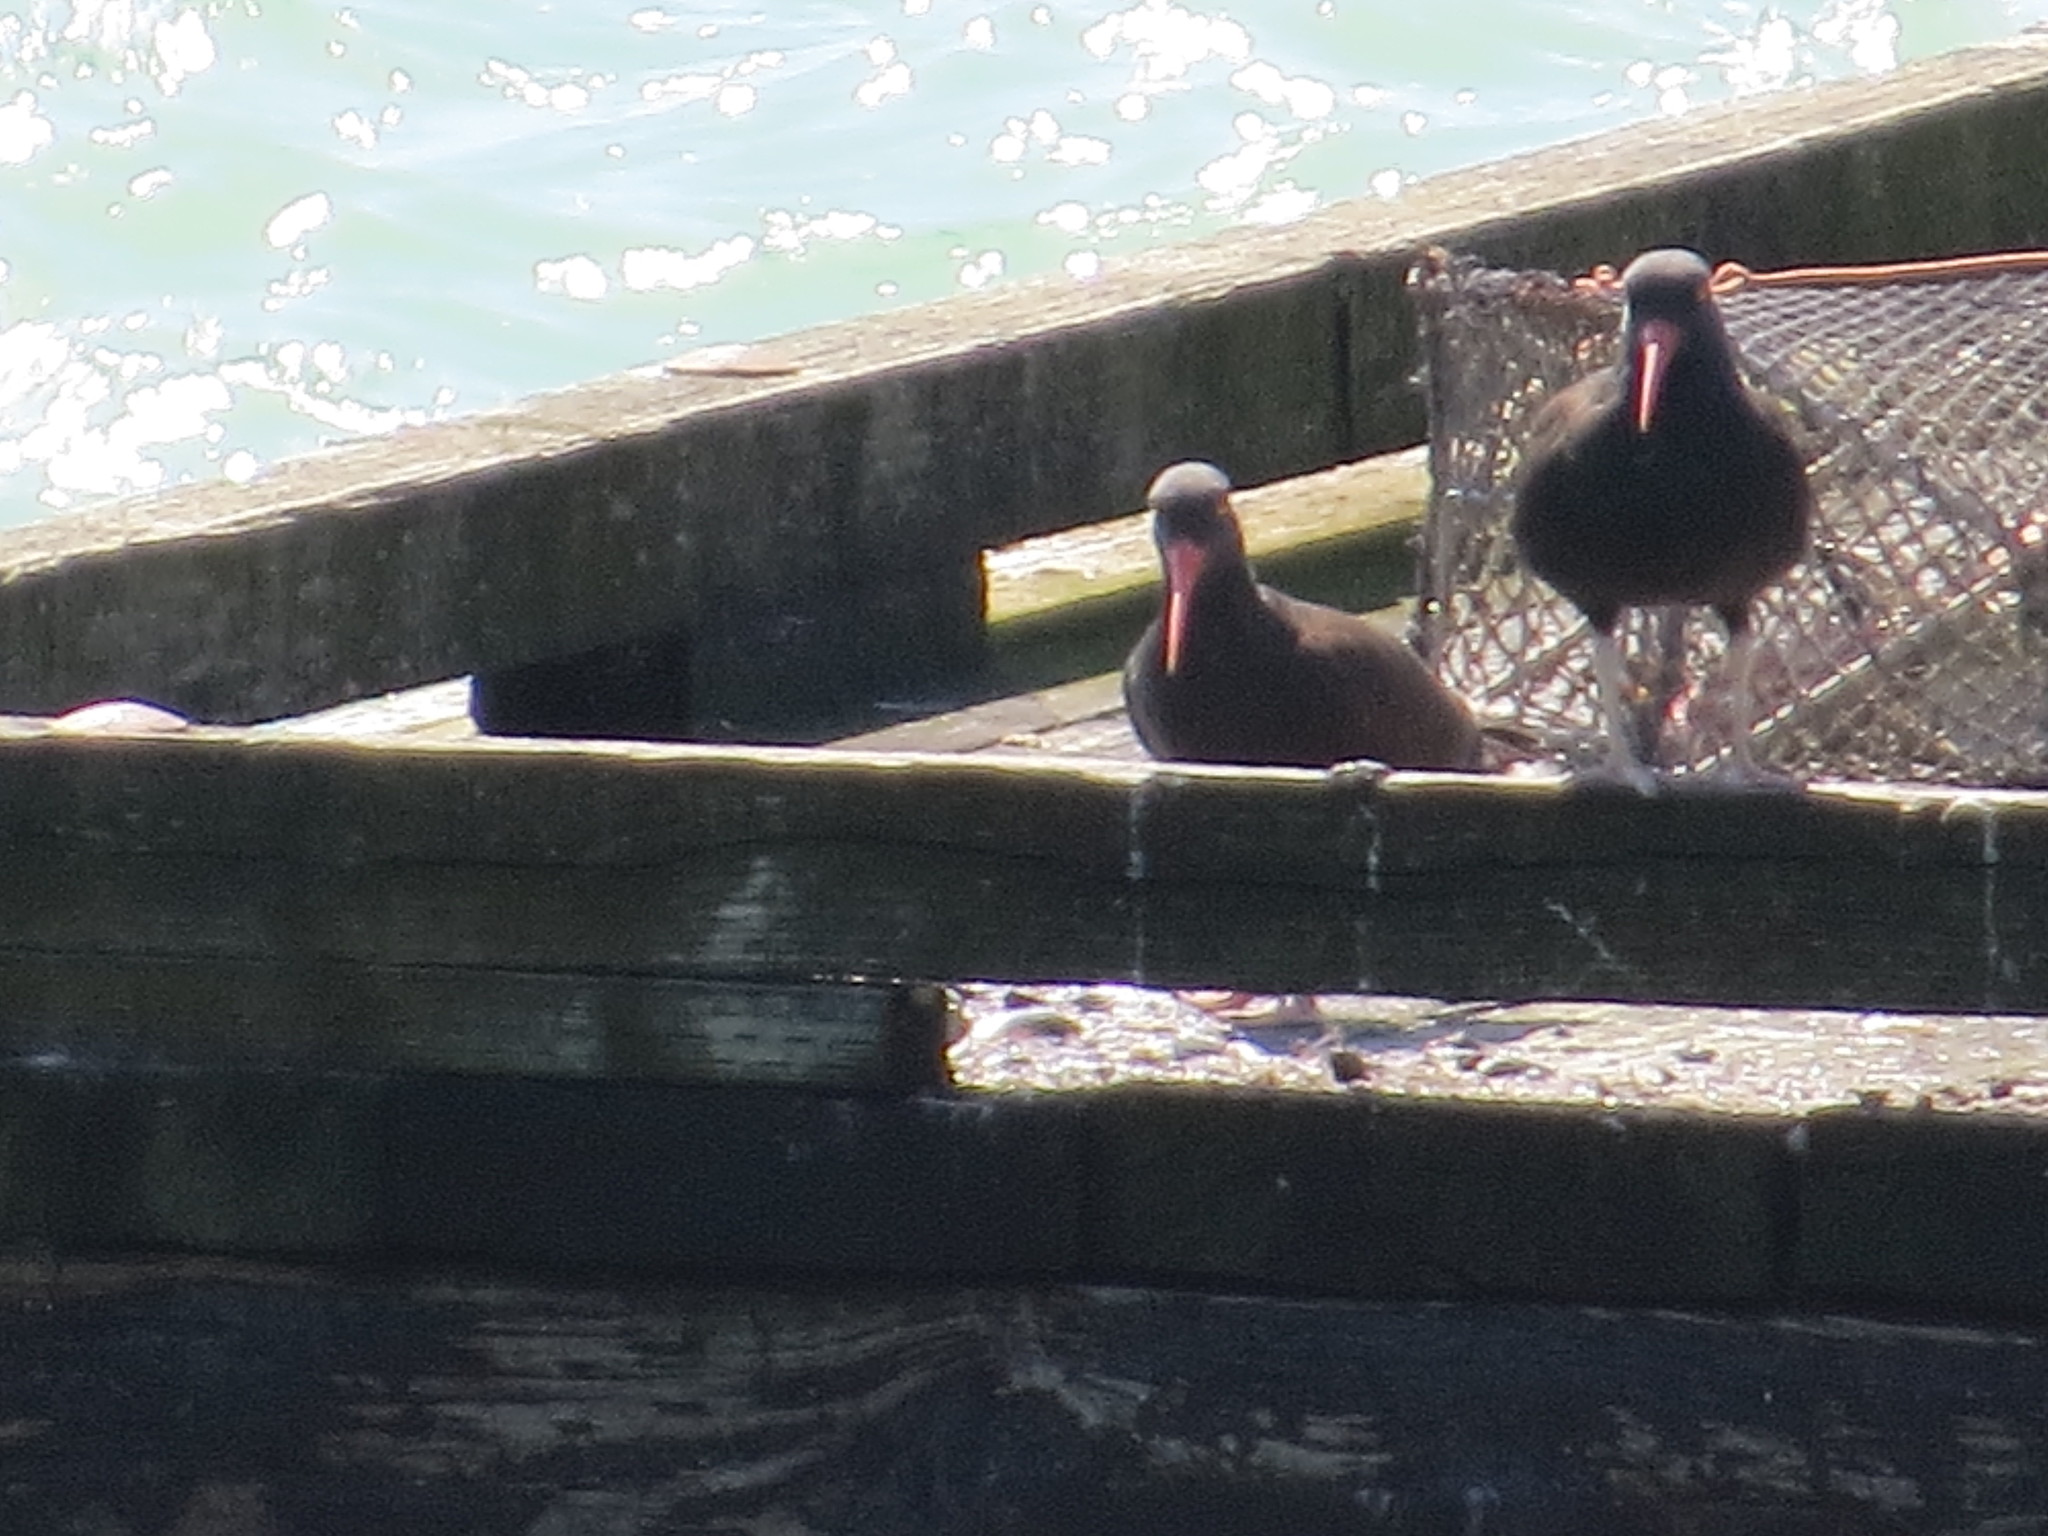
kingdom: Animalia
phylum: Chordata
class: Aves
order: Charadriiformes
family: Haematopodidae
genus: Haematopus
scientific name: Haematopus bachmani
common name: Black oystercatcher
